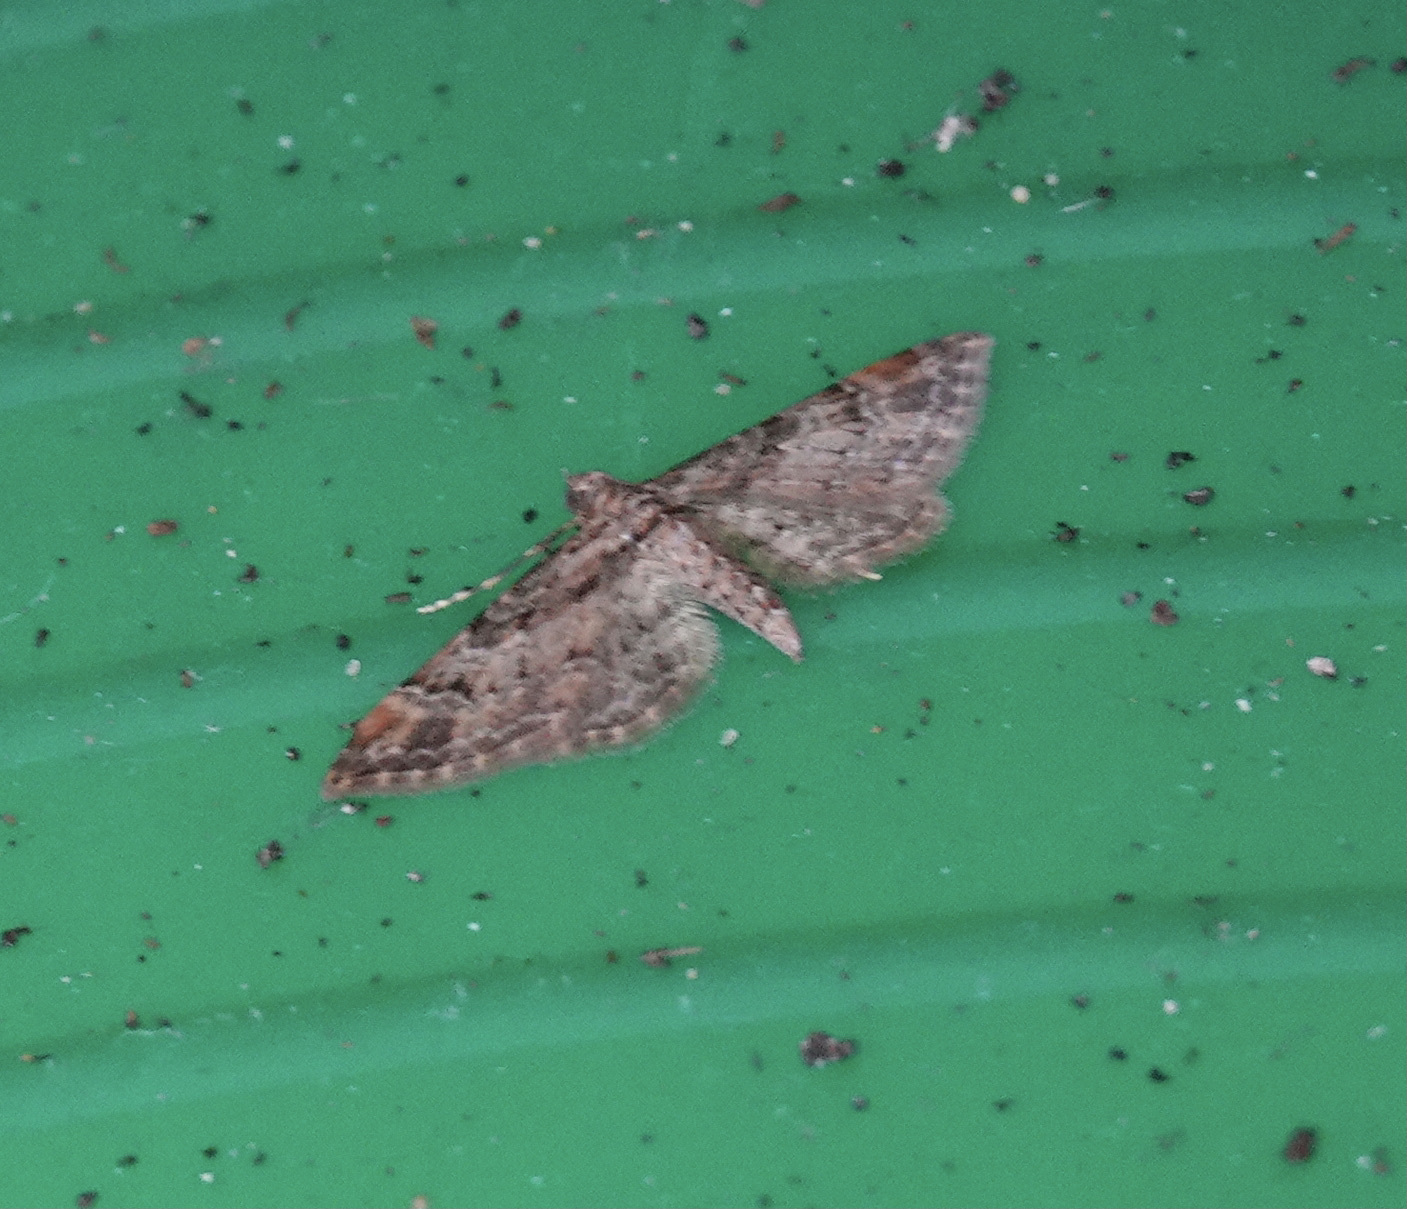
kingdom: Animalia
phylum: Arthropoda
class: Insecta
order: Lepidoptera
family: Geometridae
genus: Gymnoscelis
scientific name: Gymnoscelis rufifasciata
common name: Double-striped pug
